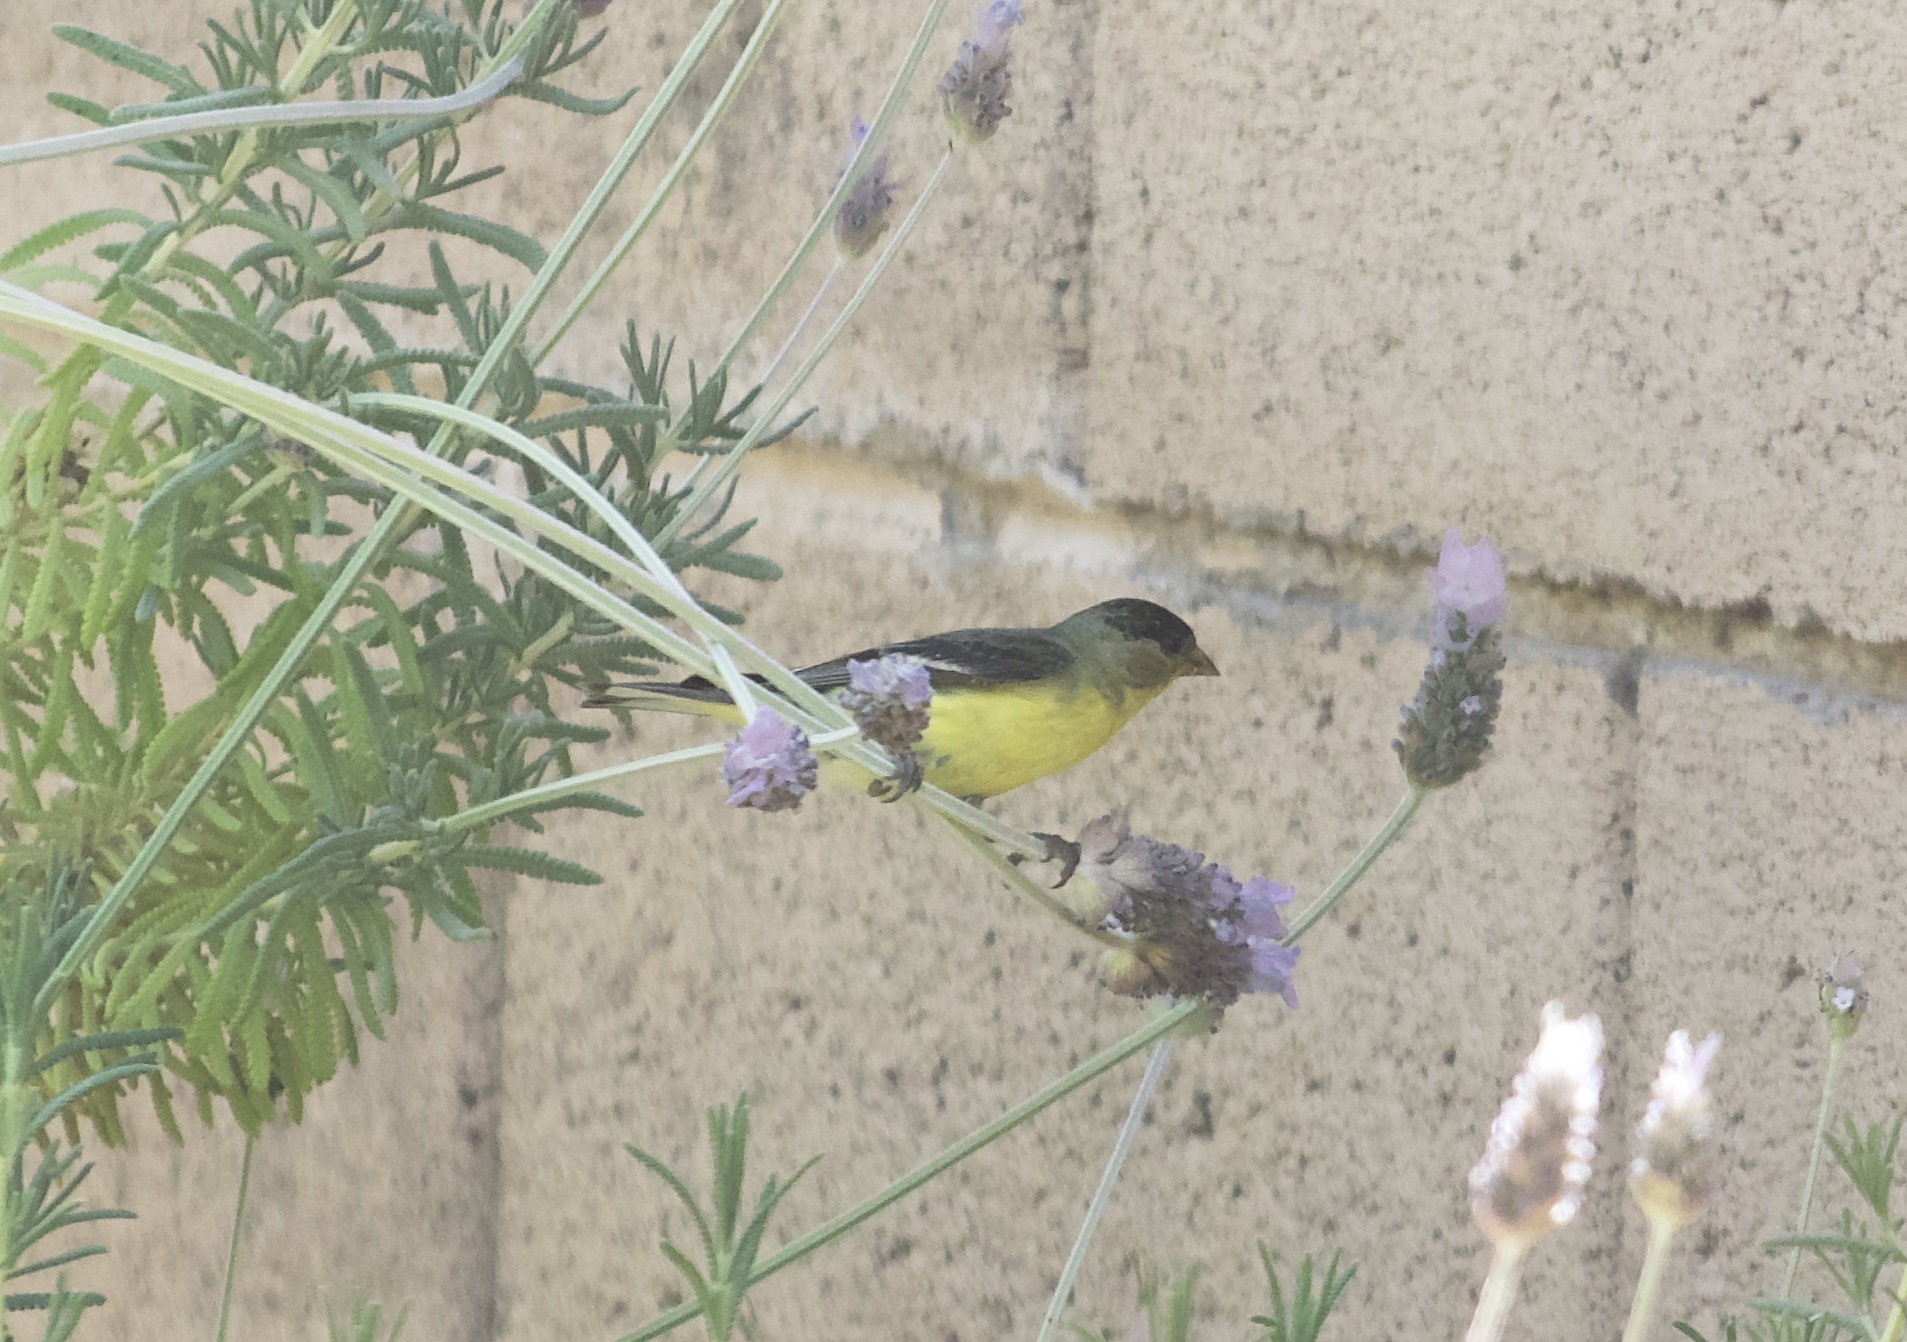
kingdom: Animalia
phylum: Chordata
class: Aves
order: Passeriformes
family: Fringillidae
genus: Spinus
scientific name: Spinus psaltria
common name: Lesser goldfinch
